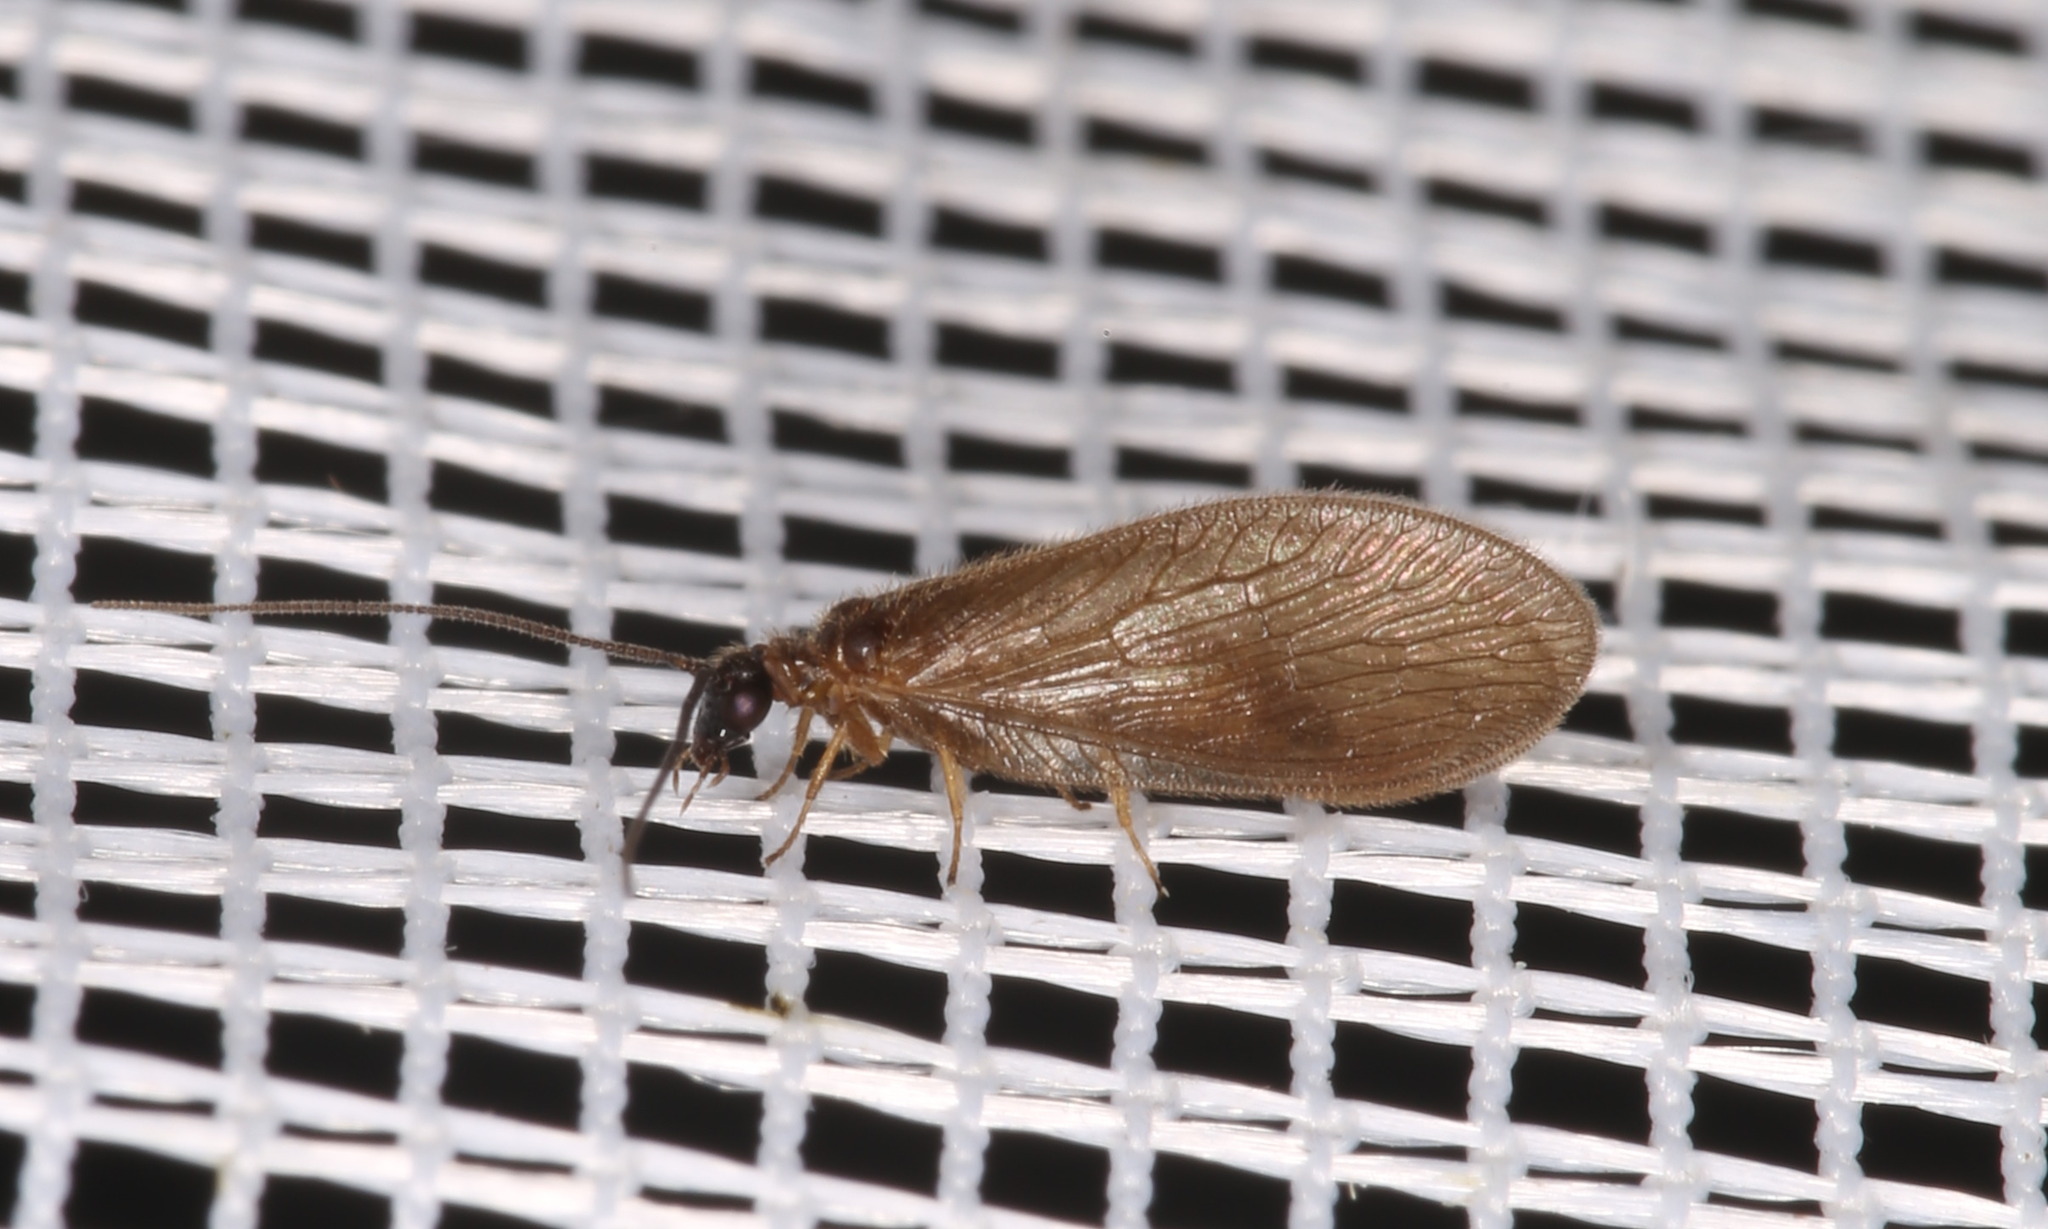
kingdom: Animalia
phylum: Arthropoda
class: Insecta
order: Neuroptera
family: Hemerobiidae
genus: Sympherobius
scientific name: Sympherobius fuscescens
